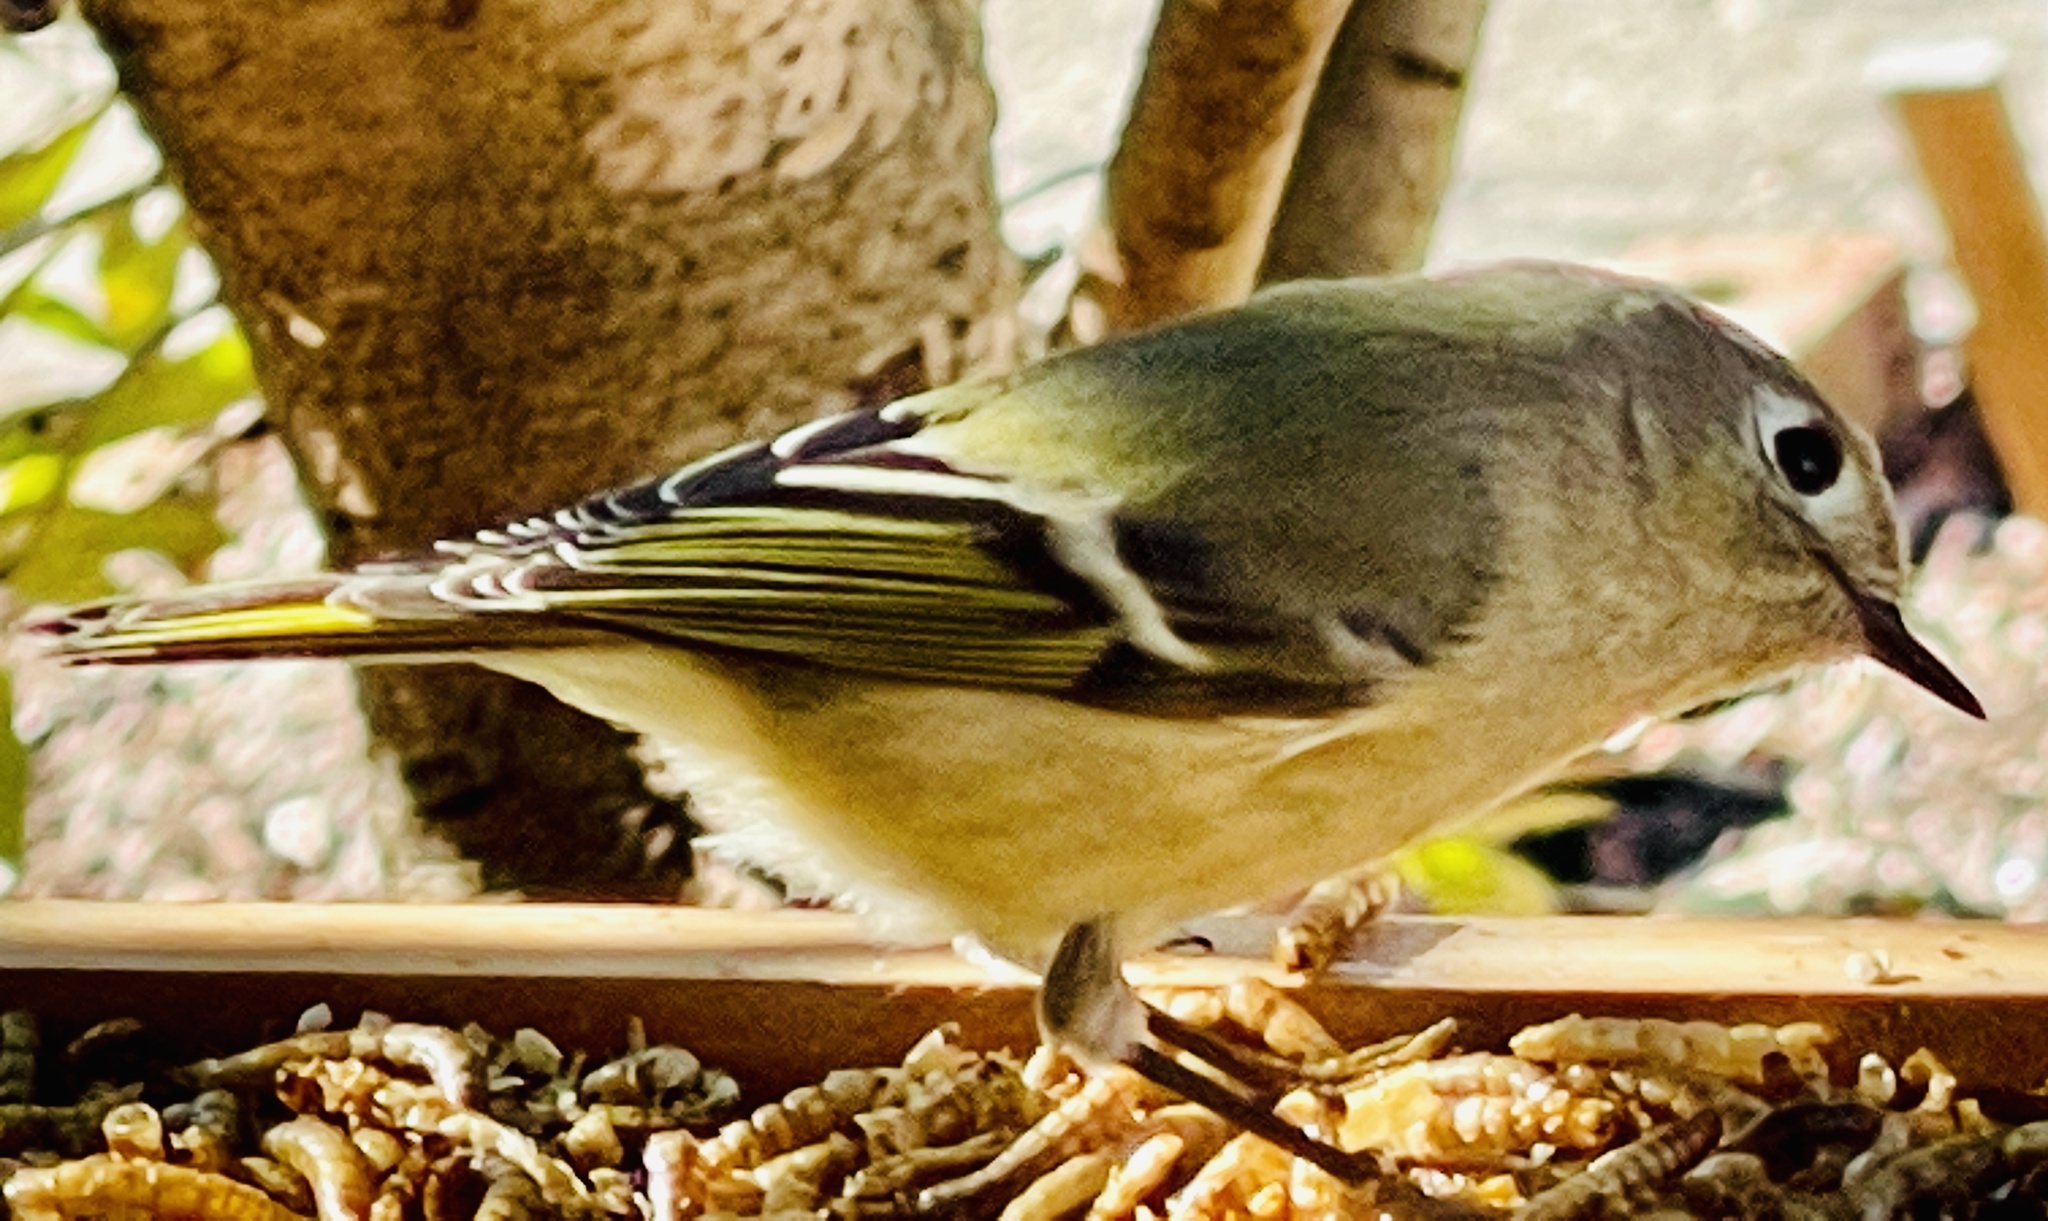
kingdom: Animalia
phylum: Chordata
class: Aves
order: Passeriformes
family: Regulidae
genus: Regulus
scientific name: Regulus calendula
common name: Ruby-crowned kinglet
